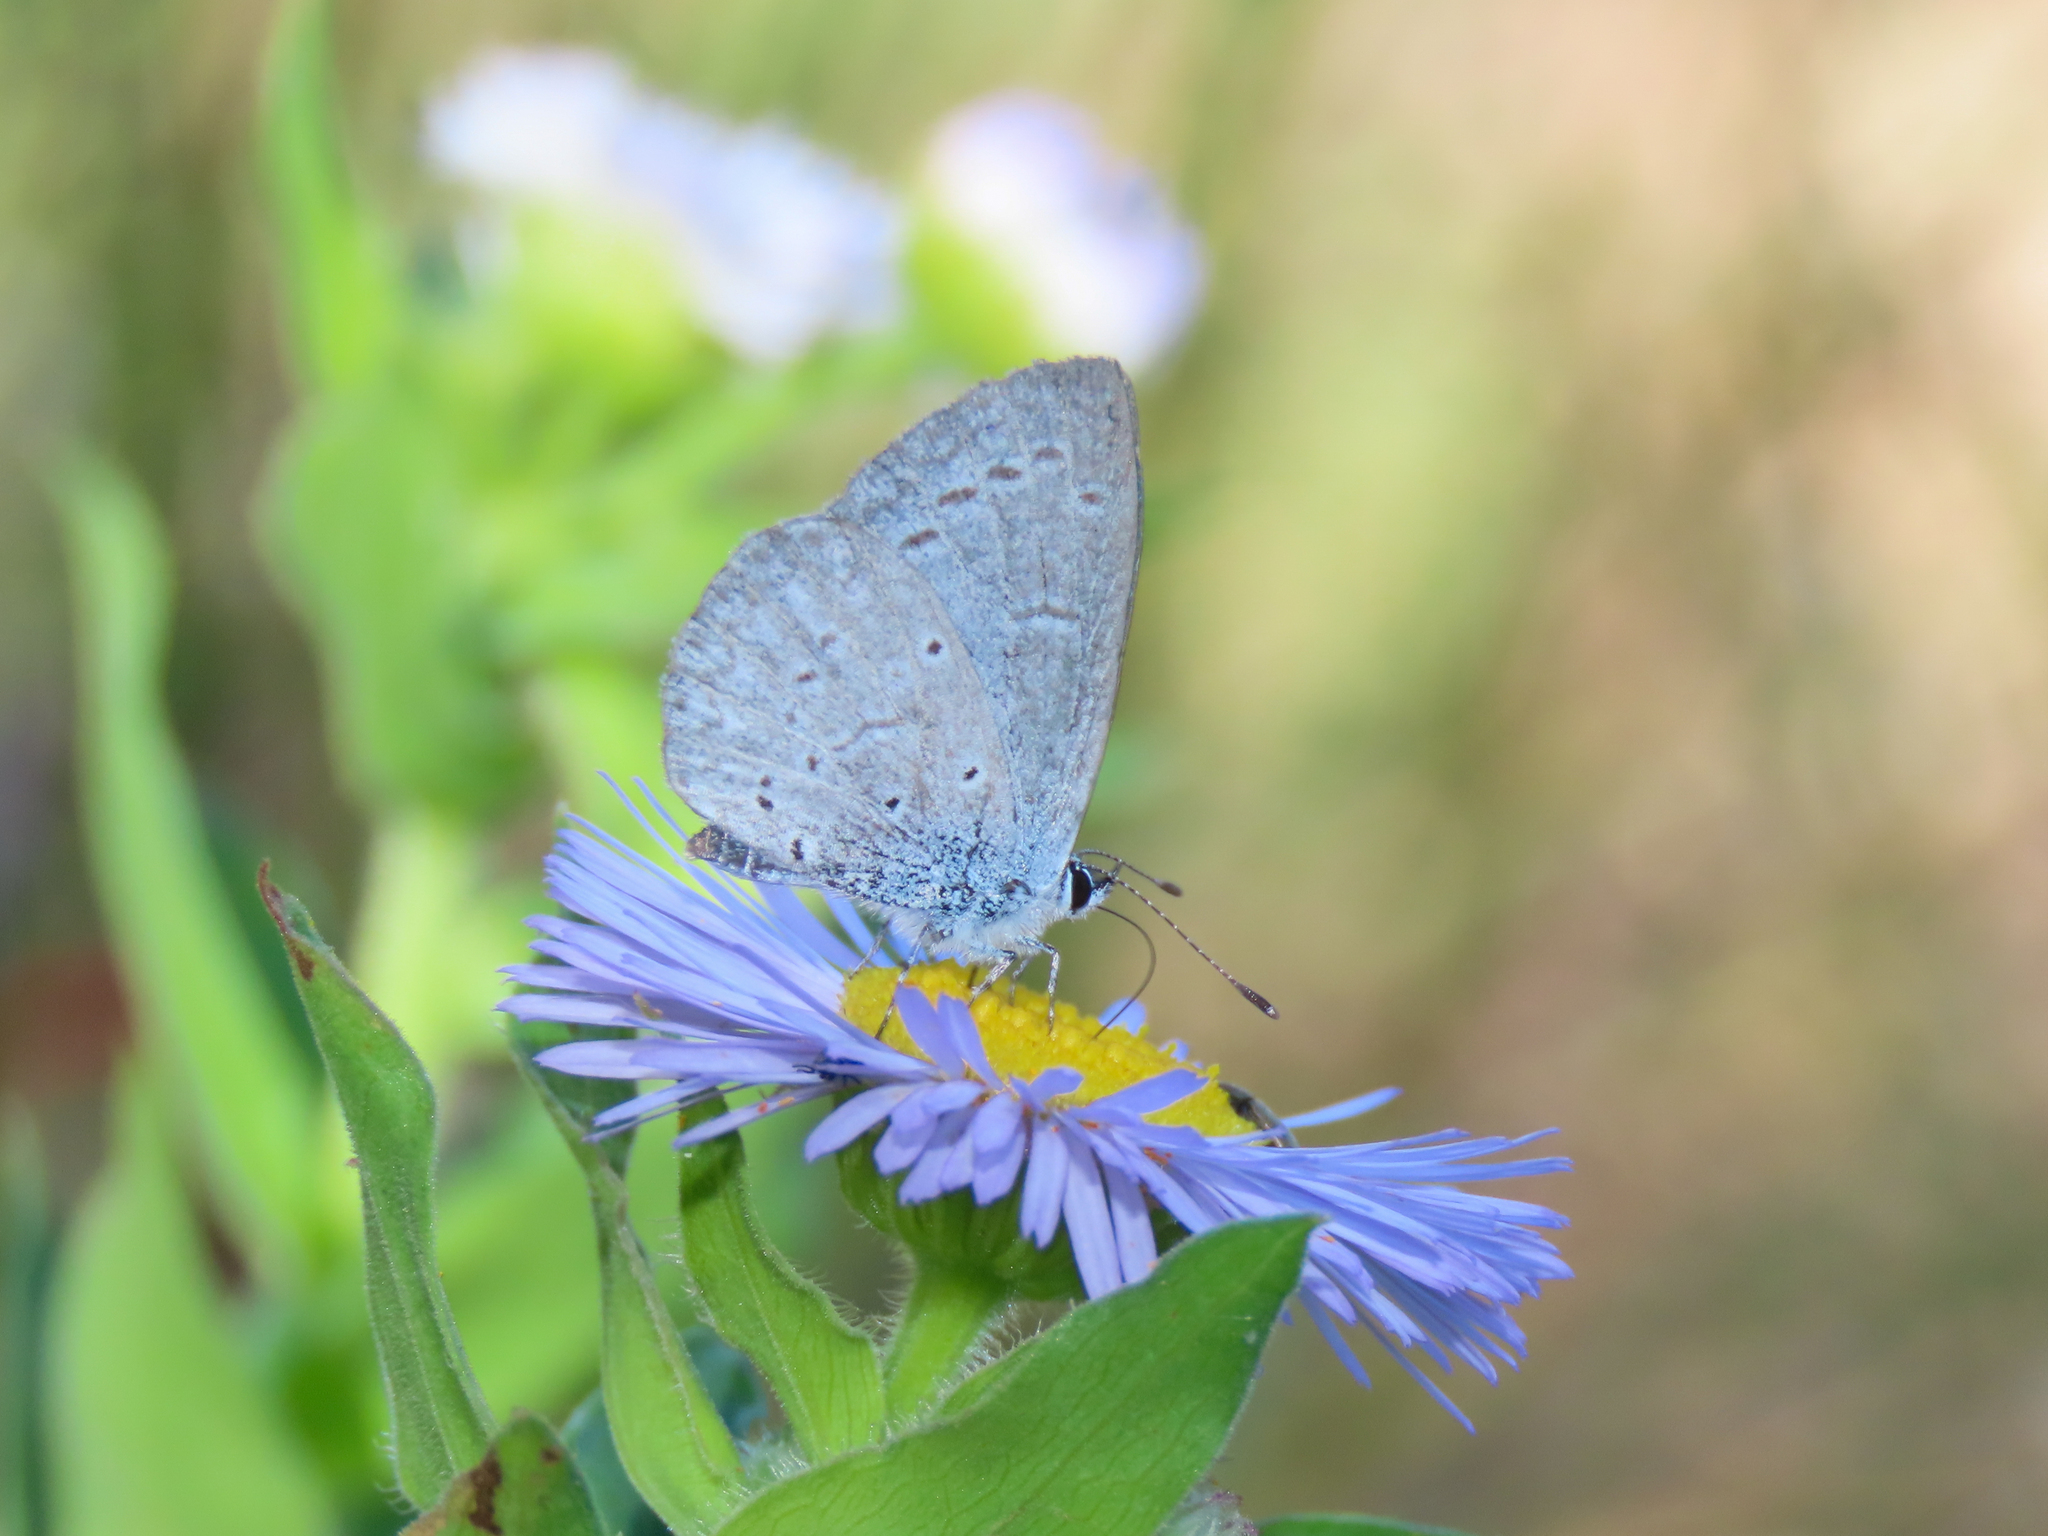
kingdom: Animalia
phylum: Arthropoda
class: Insecta
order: Lepidoptera
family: Lycaenidae
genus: Celastrina
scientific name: Celastrina ladon
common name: Spring azure
